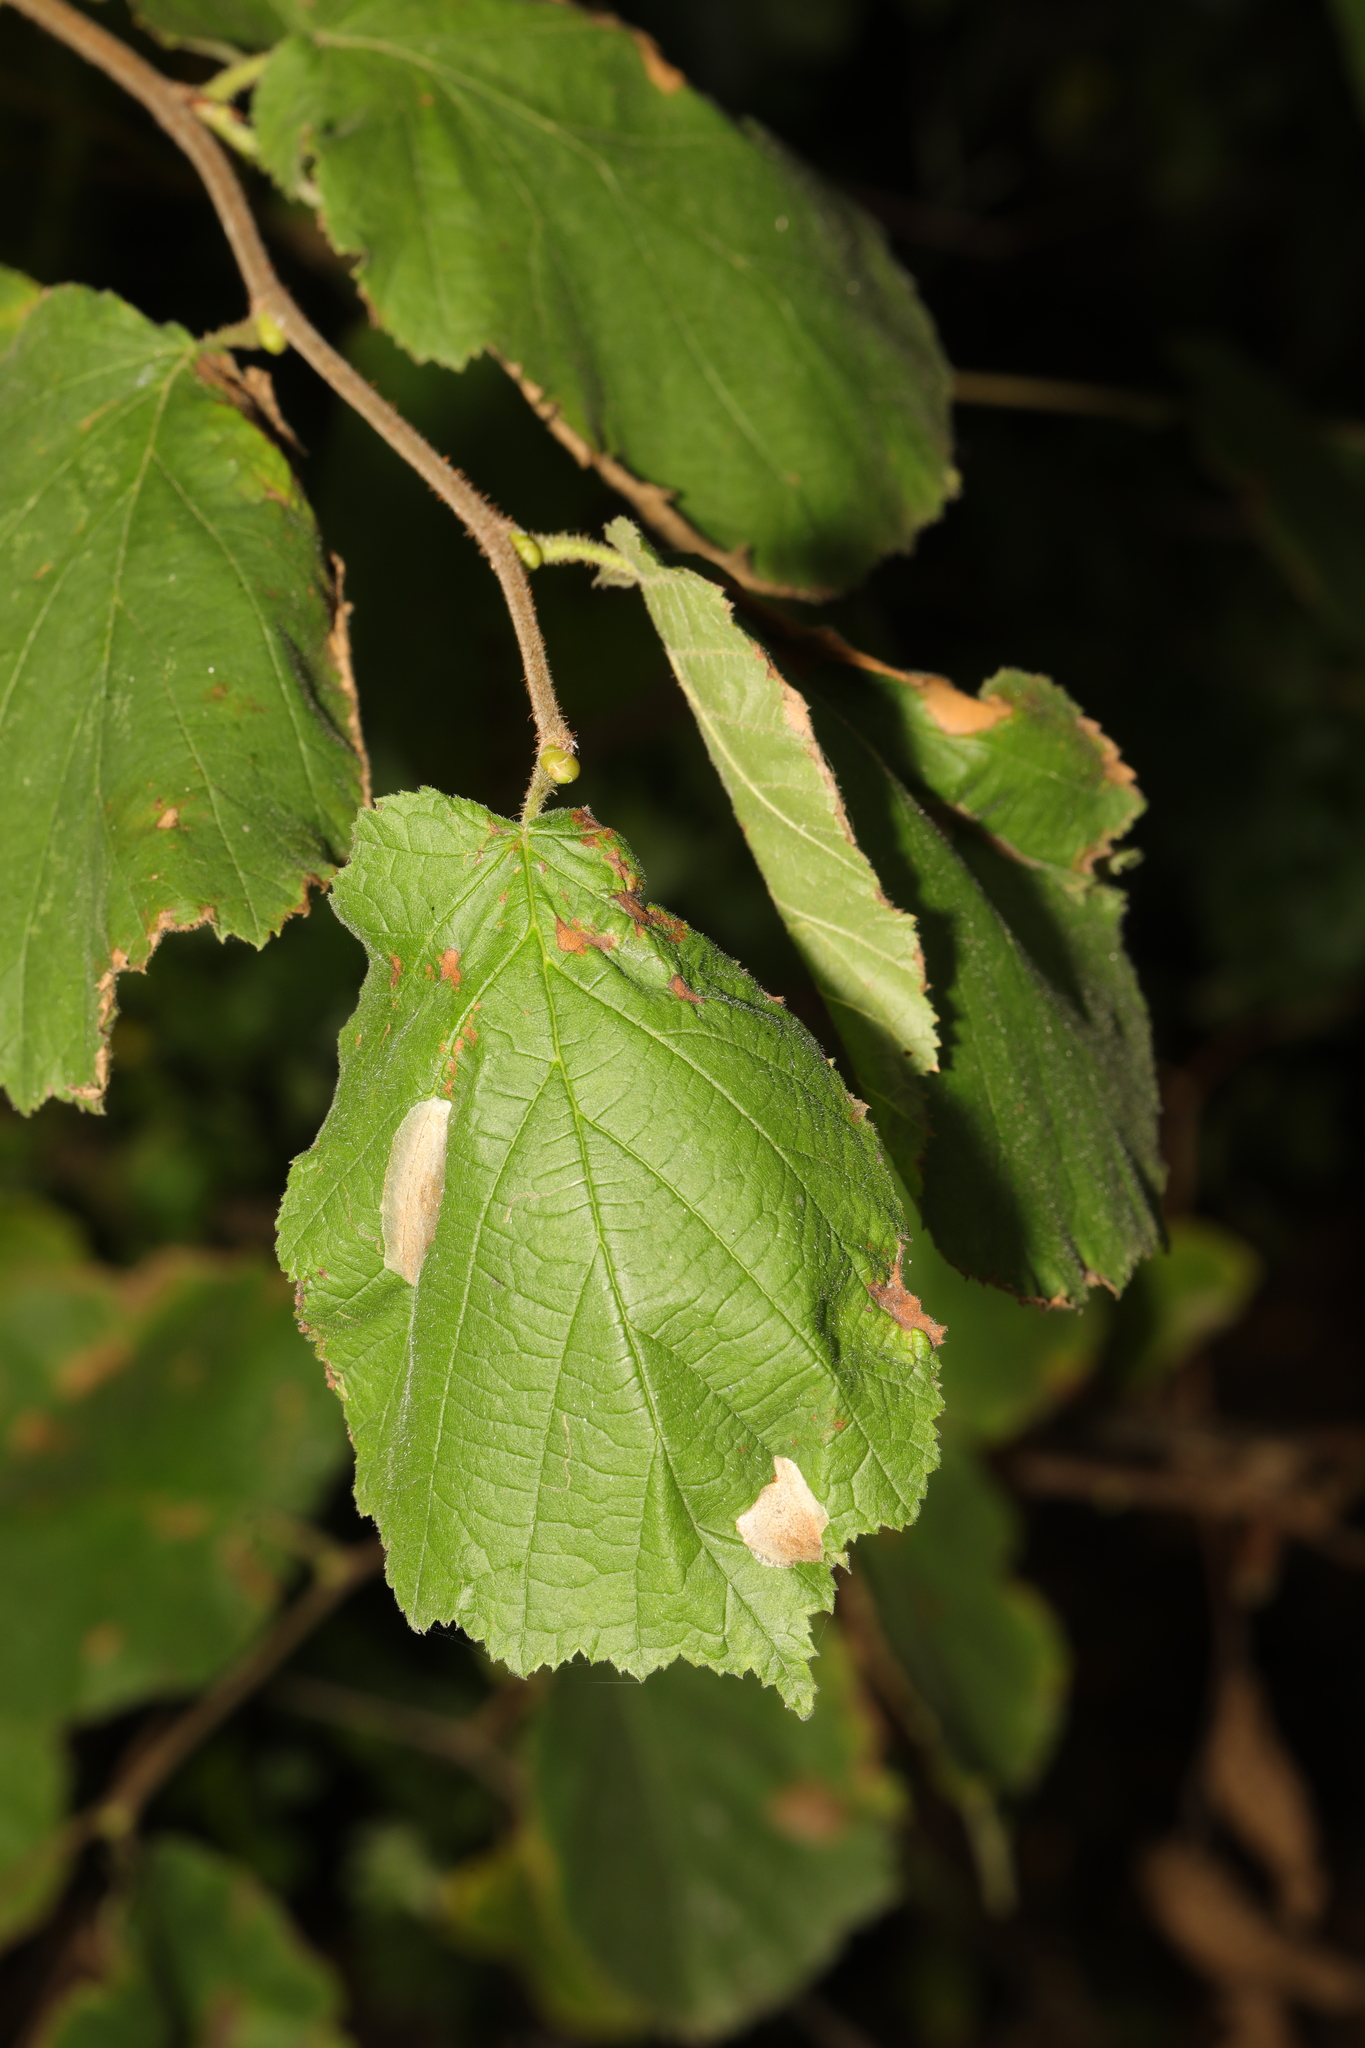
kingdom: Plantae
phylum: Tracheophyta
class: Magnoliopsida
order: Fagales
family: Betulaceae
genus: Corylus
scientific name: Corylus avellana
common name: European hazel
